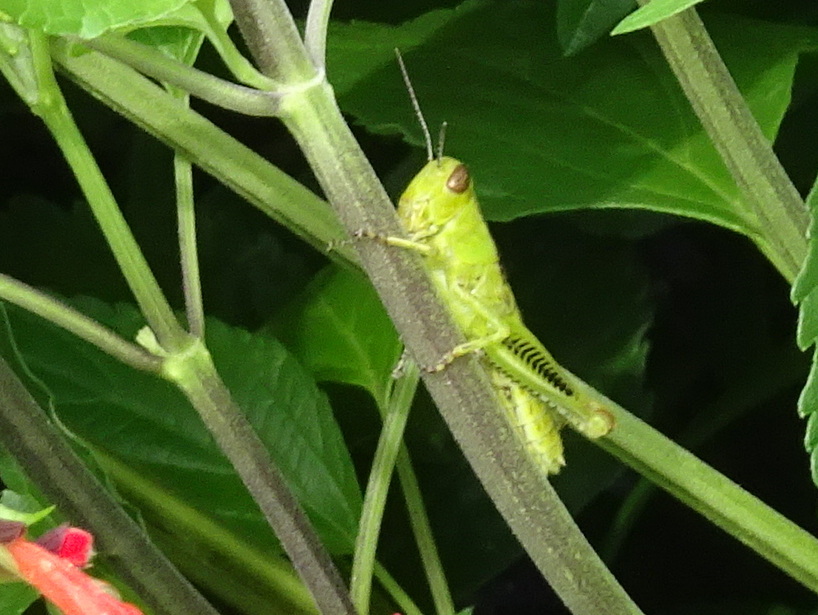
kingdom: Animalia
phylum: Arthropoda
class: Insecta
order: Orthoptera
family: Acrididae
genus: Melanoplus
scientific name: Melanoplus differentialis
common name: Differential grasshopper
